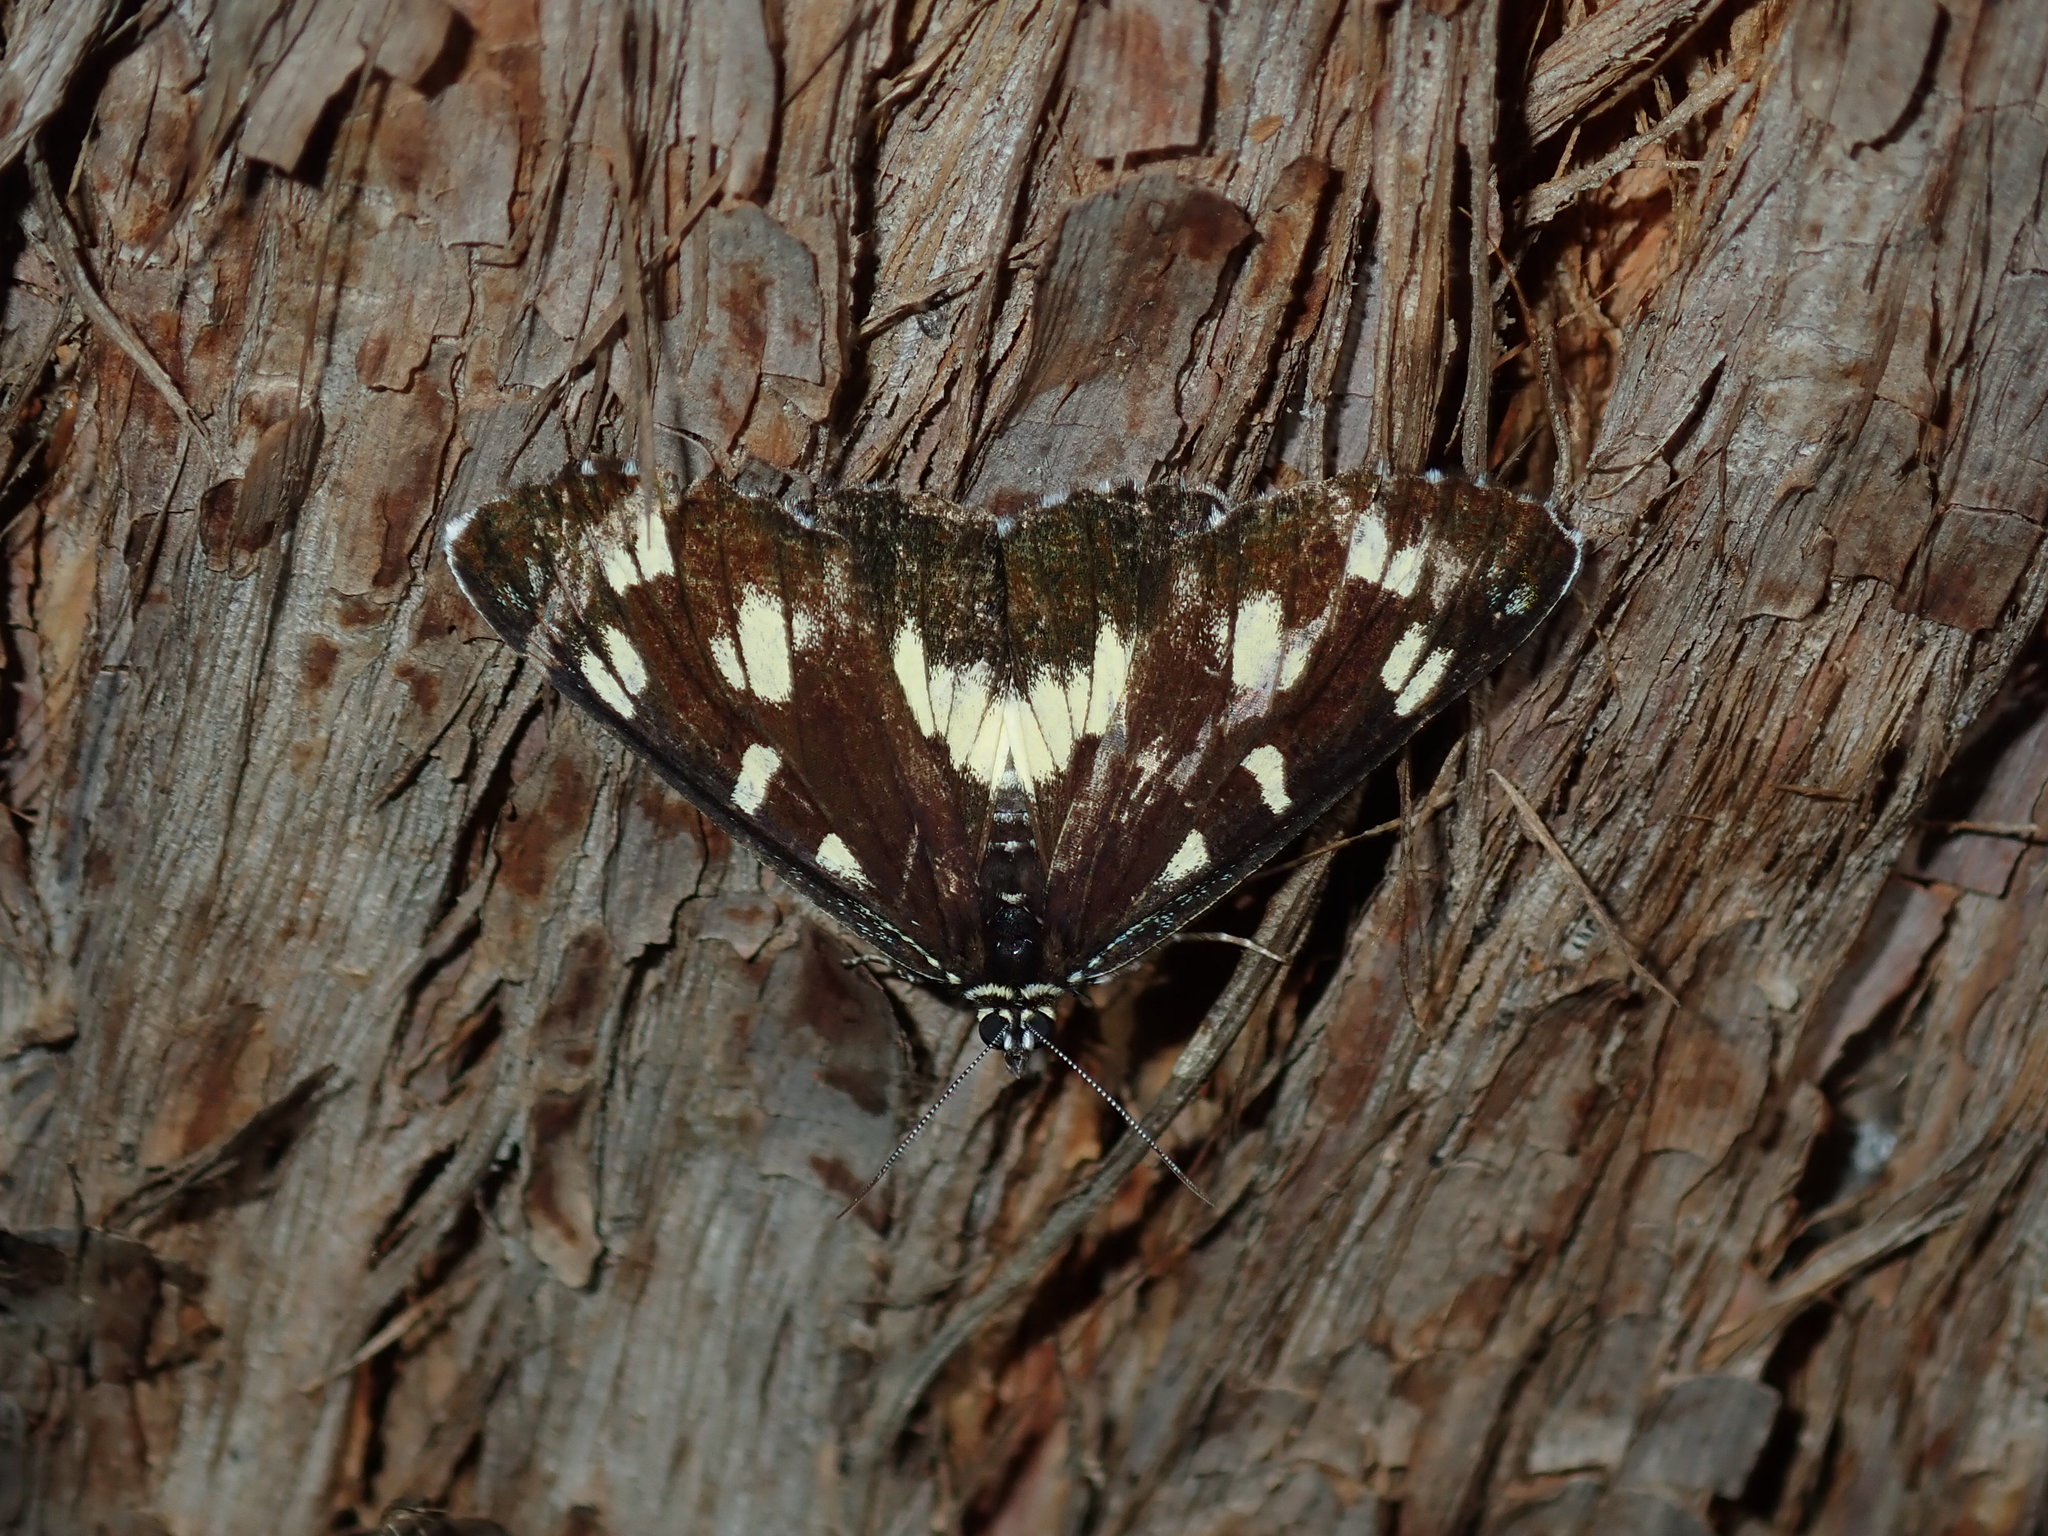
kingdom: Animalia
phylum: Arthropoda
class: Insecta
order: Lepidoptera
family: Noctuidae
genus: Cruria
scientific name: Cruria donowani
